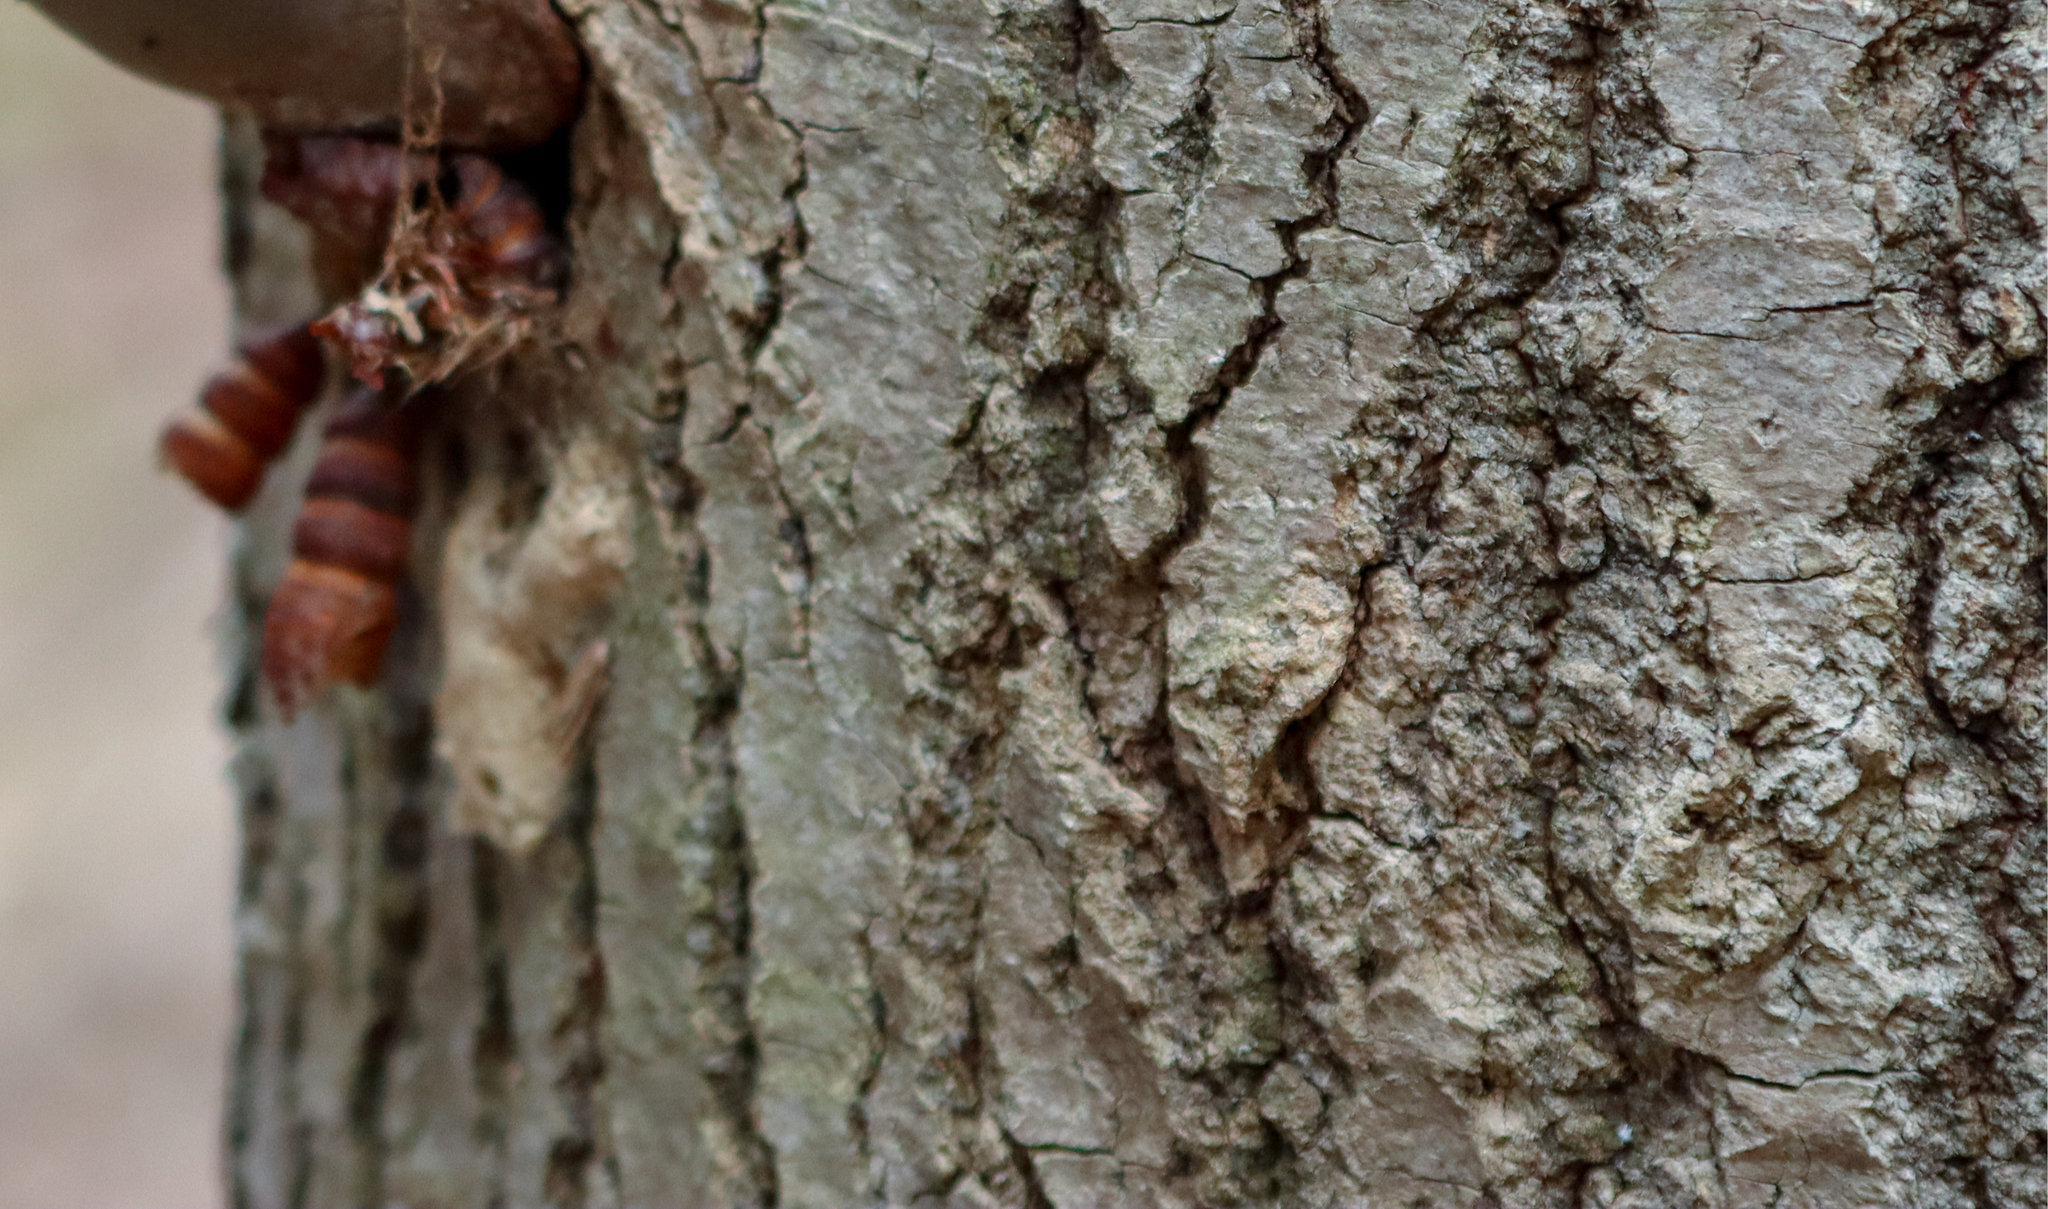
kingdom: Animalia
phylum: Arthropoda
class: Insecta
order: Lepidoptera
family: Erebidae
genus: Lymantria
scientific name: Lymantria dispar
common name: Gypsy moth
